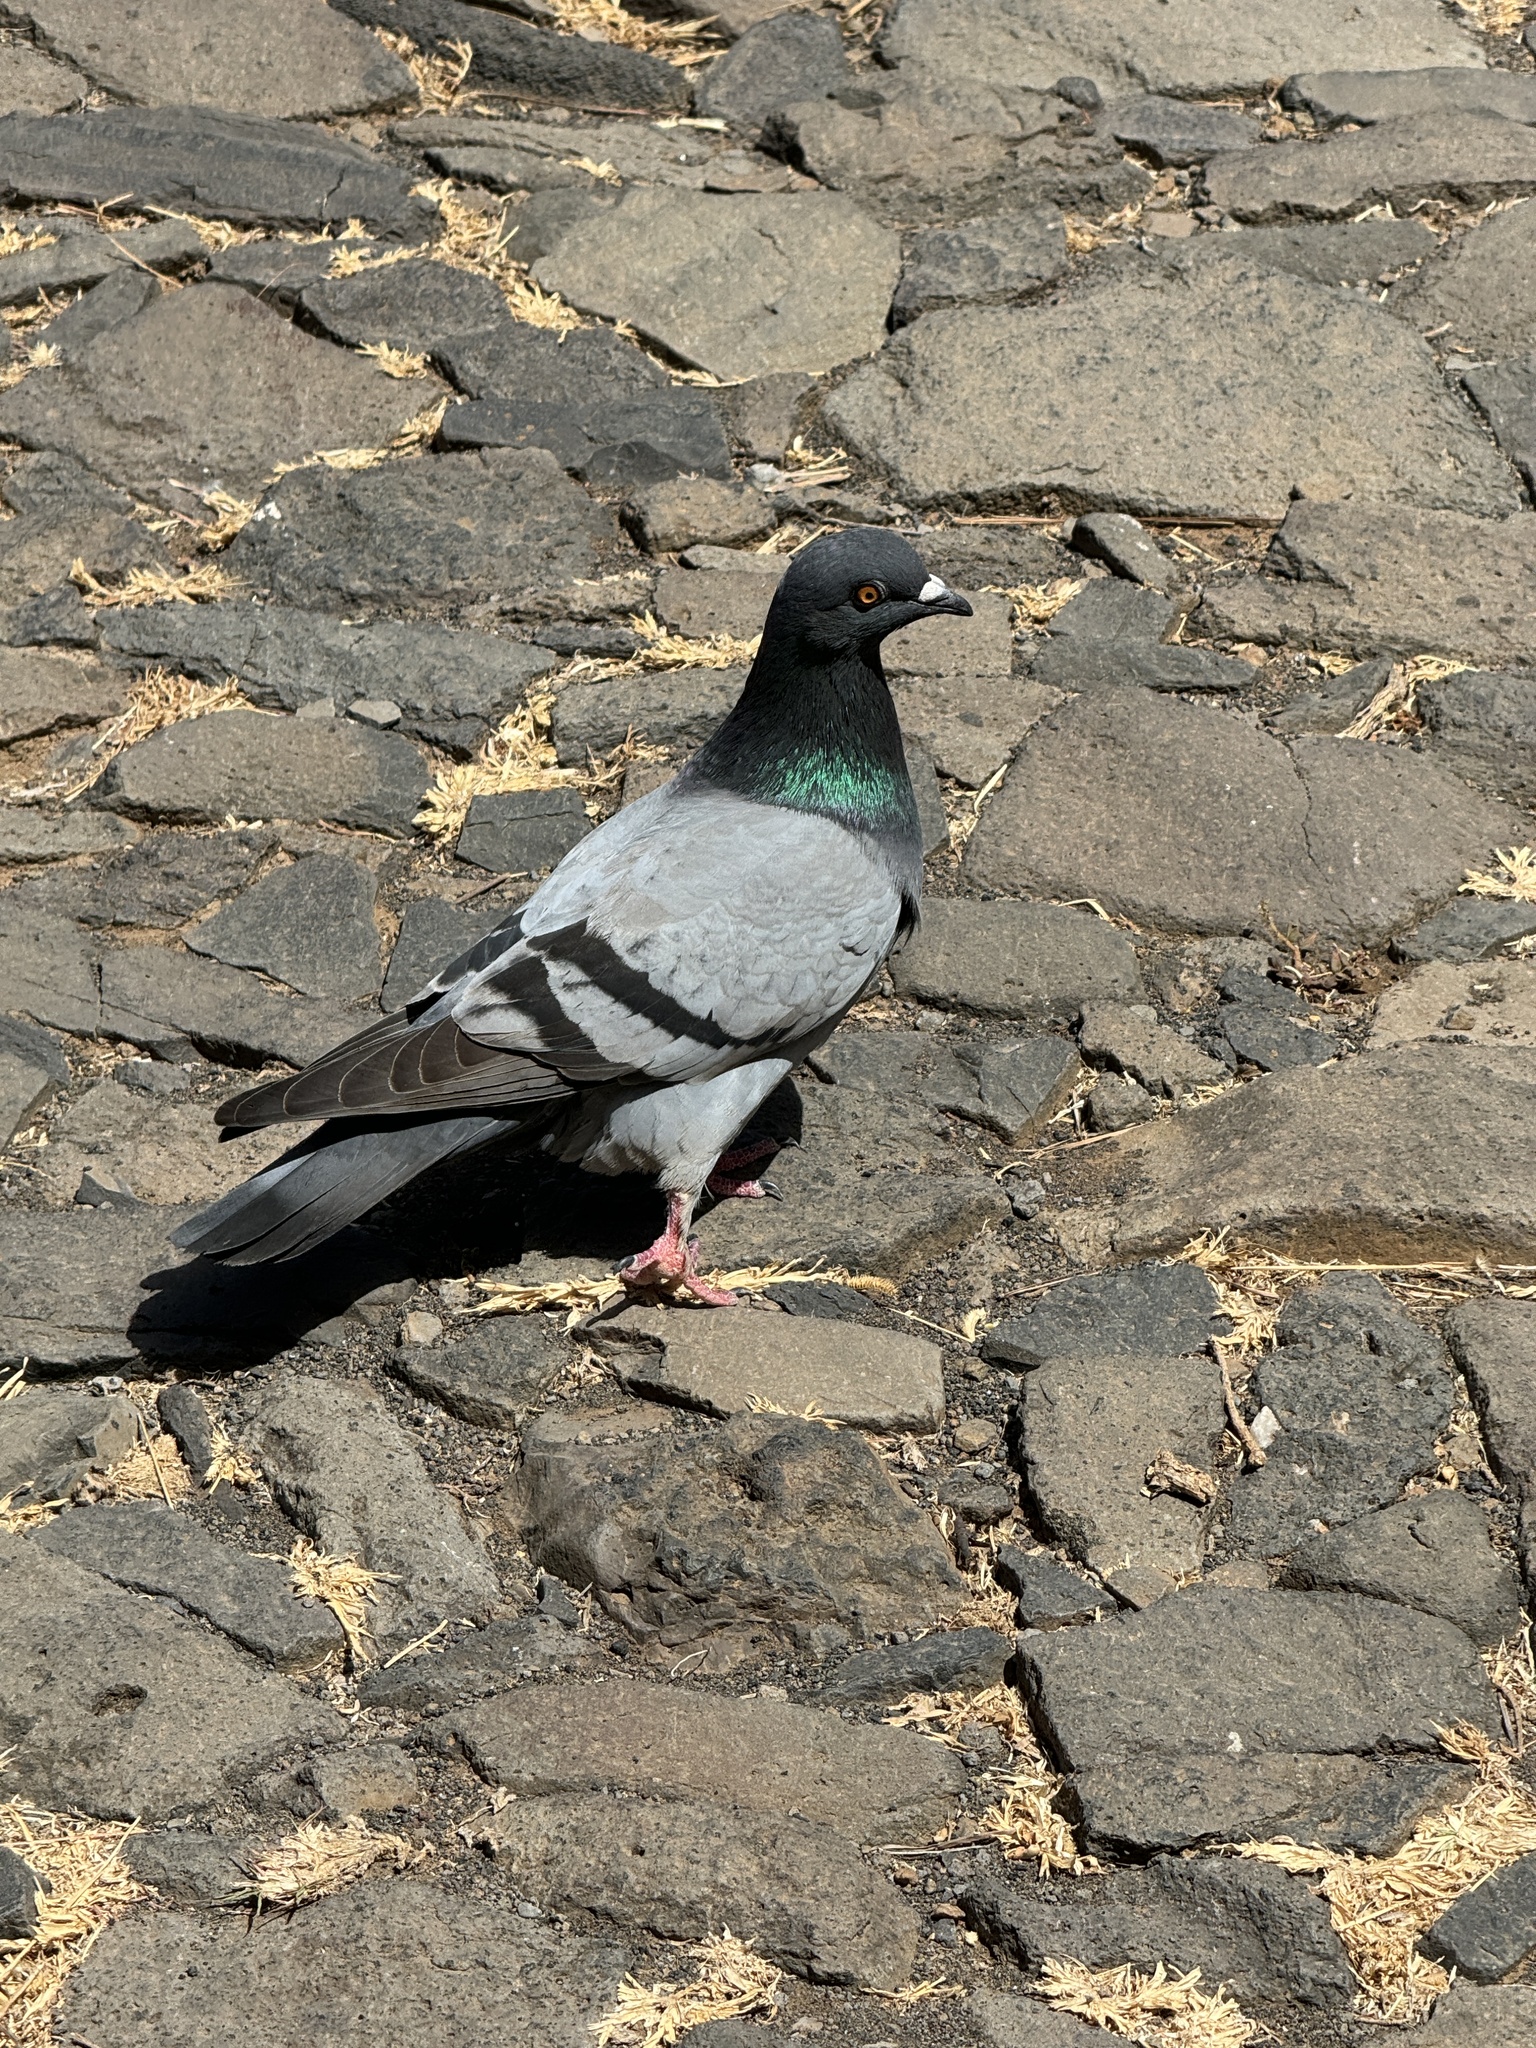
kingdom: Animalia
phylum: Chordata
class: Aves
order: Columbiformes
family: Columbidae
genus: Columba
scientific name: Columba livia
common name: Rock pigeon
